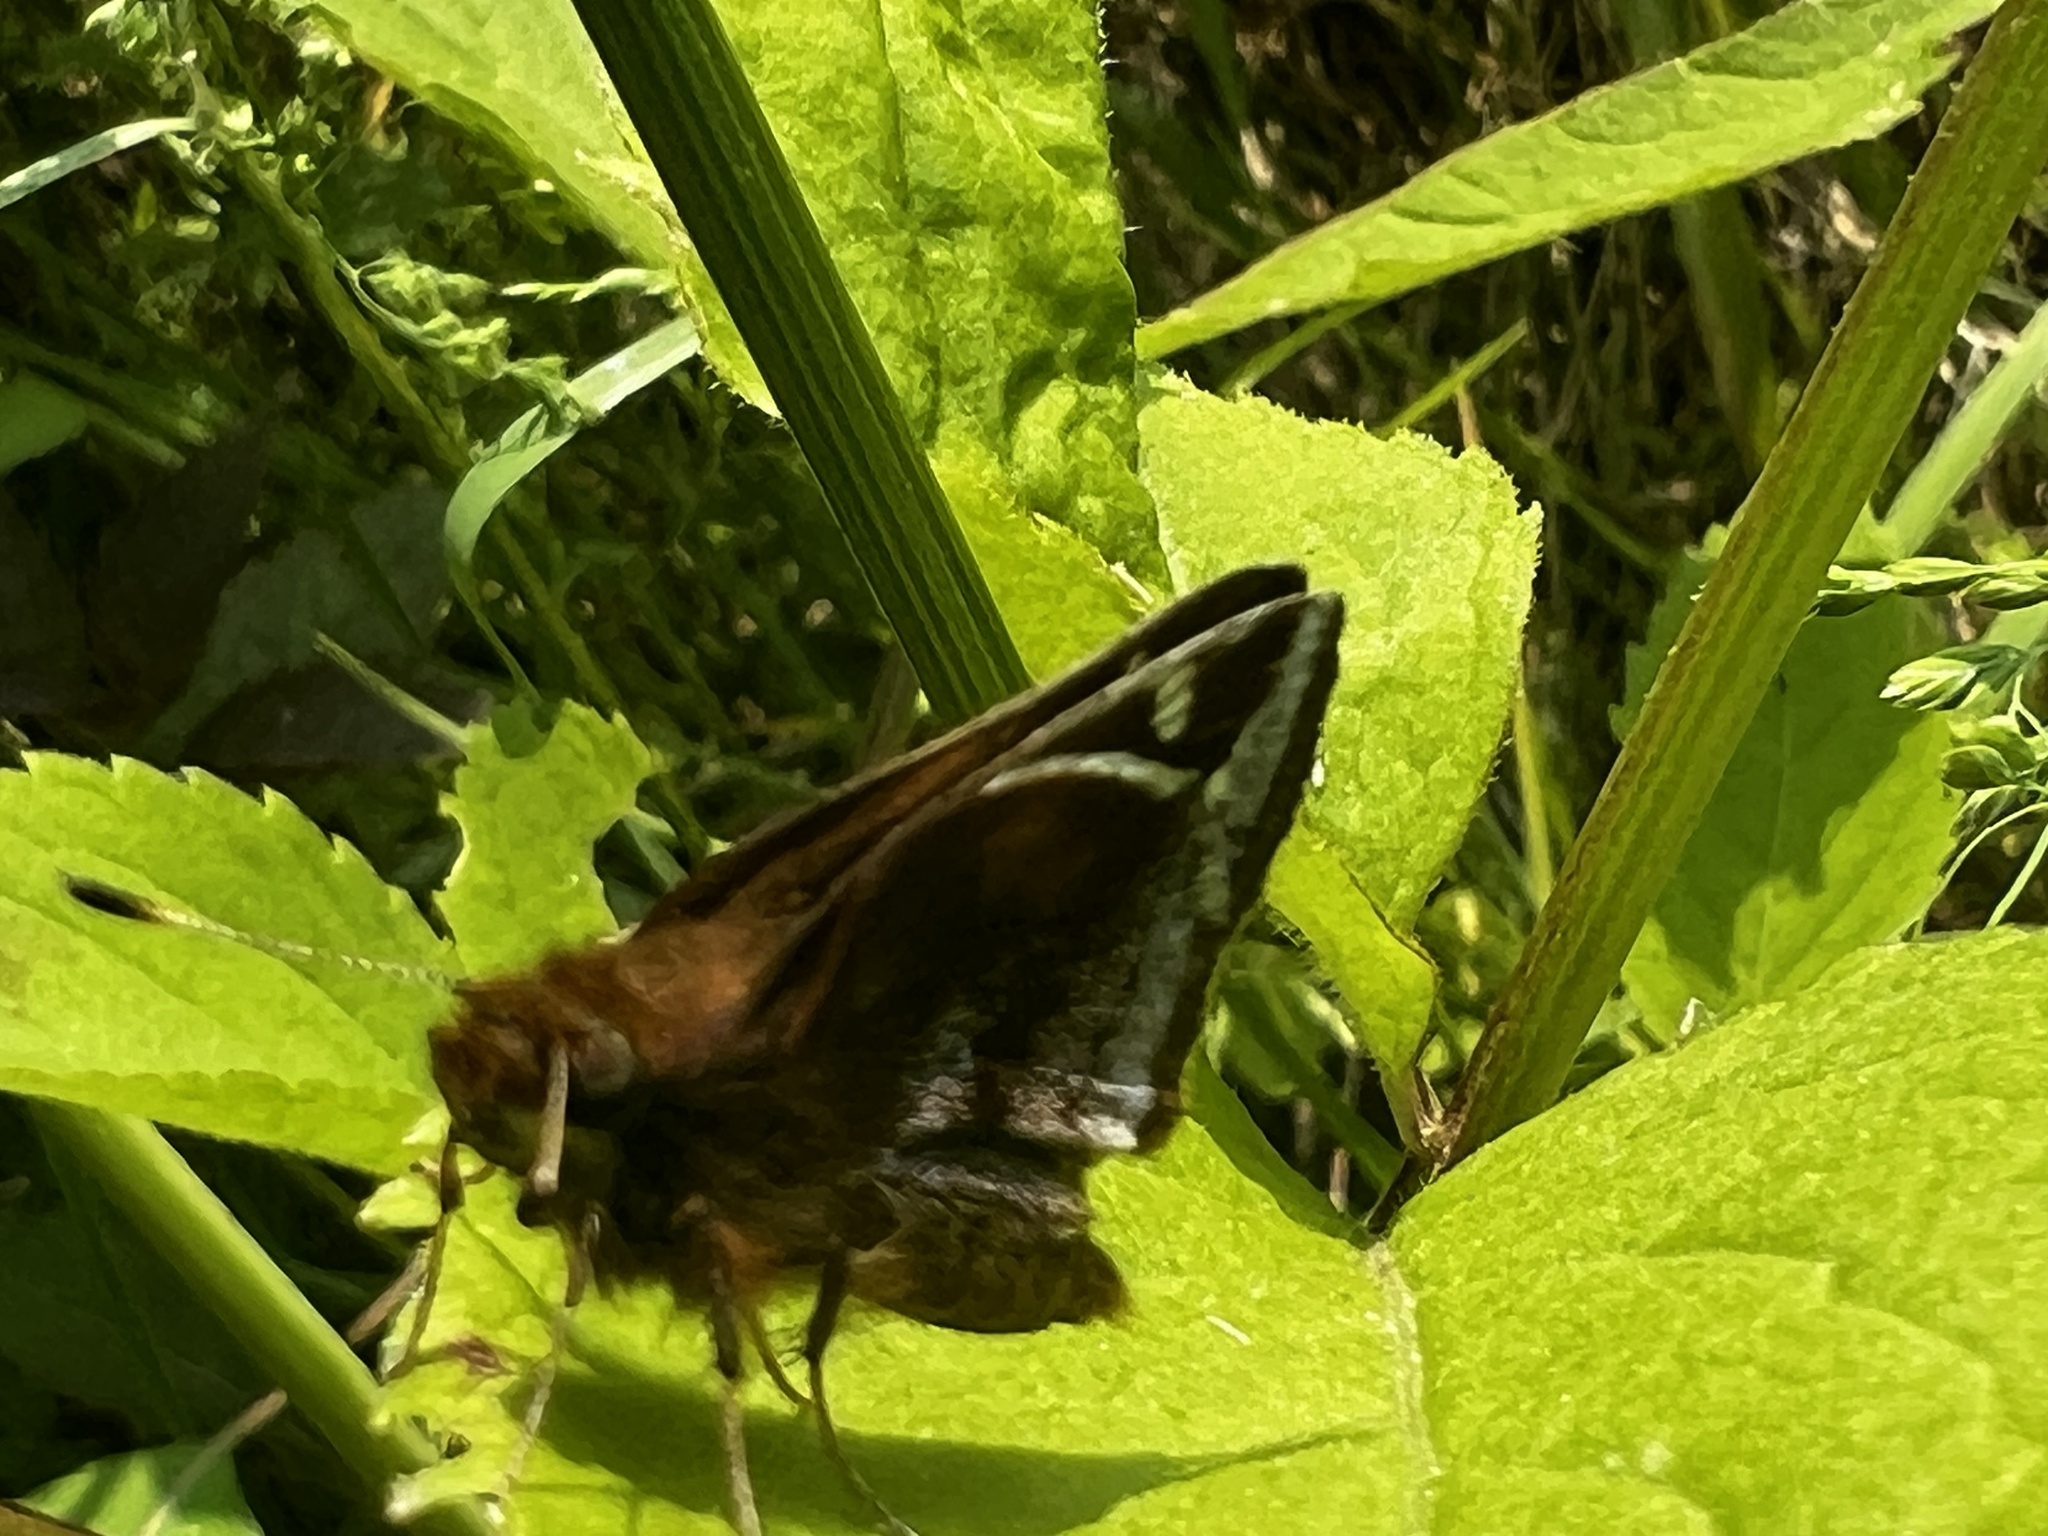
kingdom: Animalia
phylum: Arthropoda
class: Insecta
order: Lepidoptera
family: Hesperiidae
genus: Lon
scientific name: Lon zabulon
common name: Zabulon skipper
